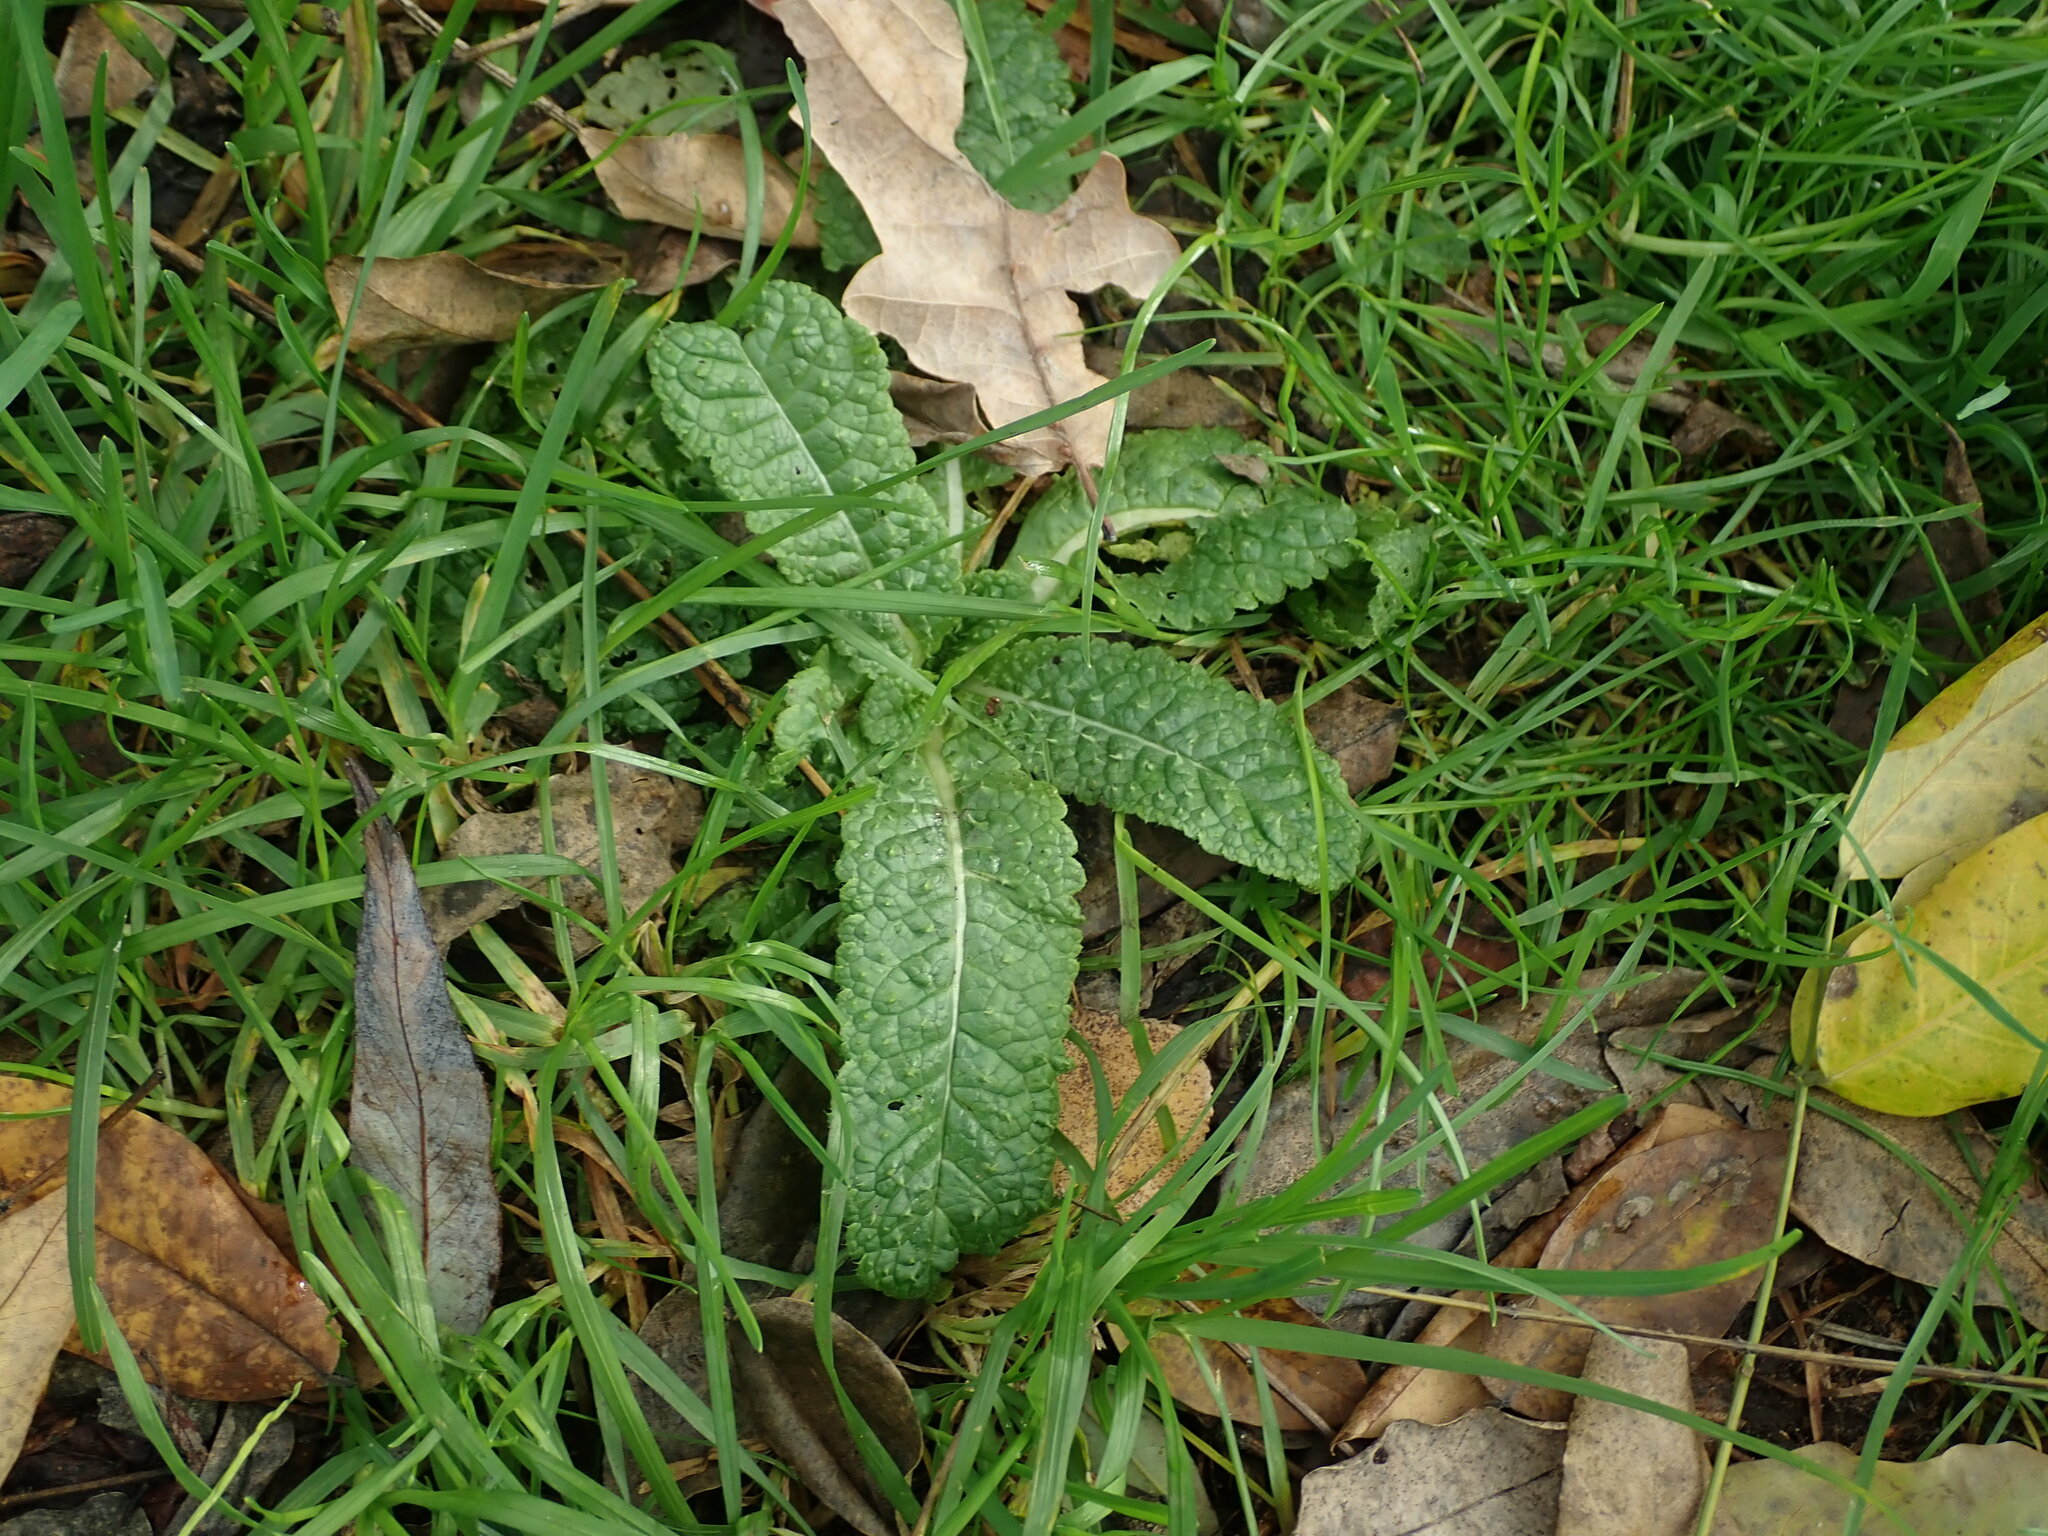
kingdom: Plantae
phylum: Tracheophyta
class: Magnoliopsida
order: Dipsacales
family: Caprifoliaceae
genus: Dipsacus
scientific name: Dipsacus fullonum
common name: Teasel
